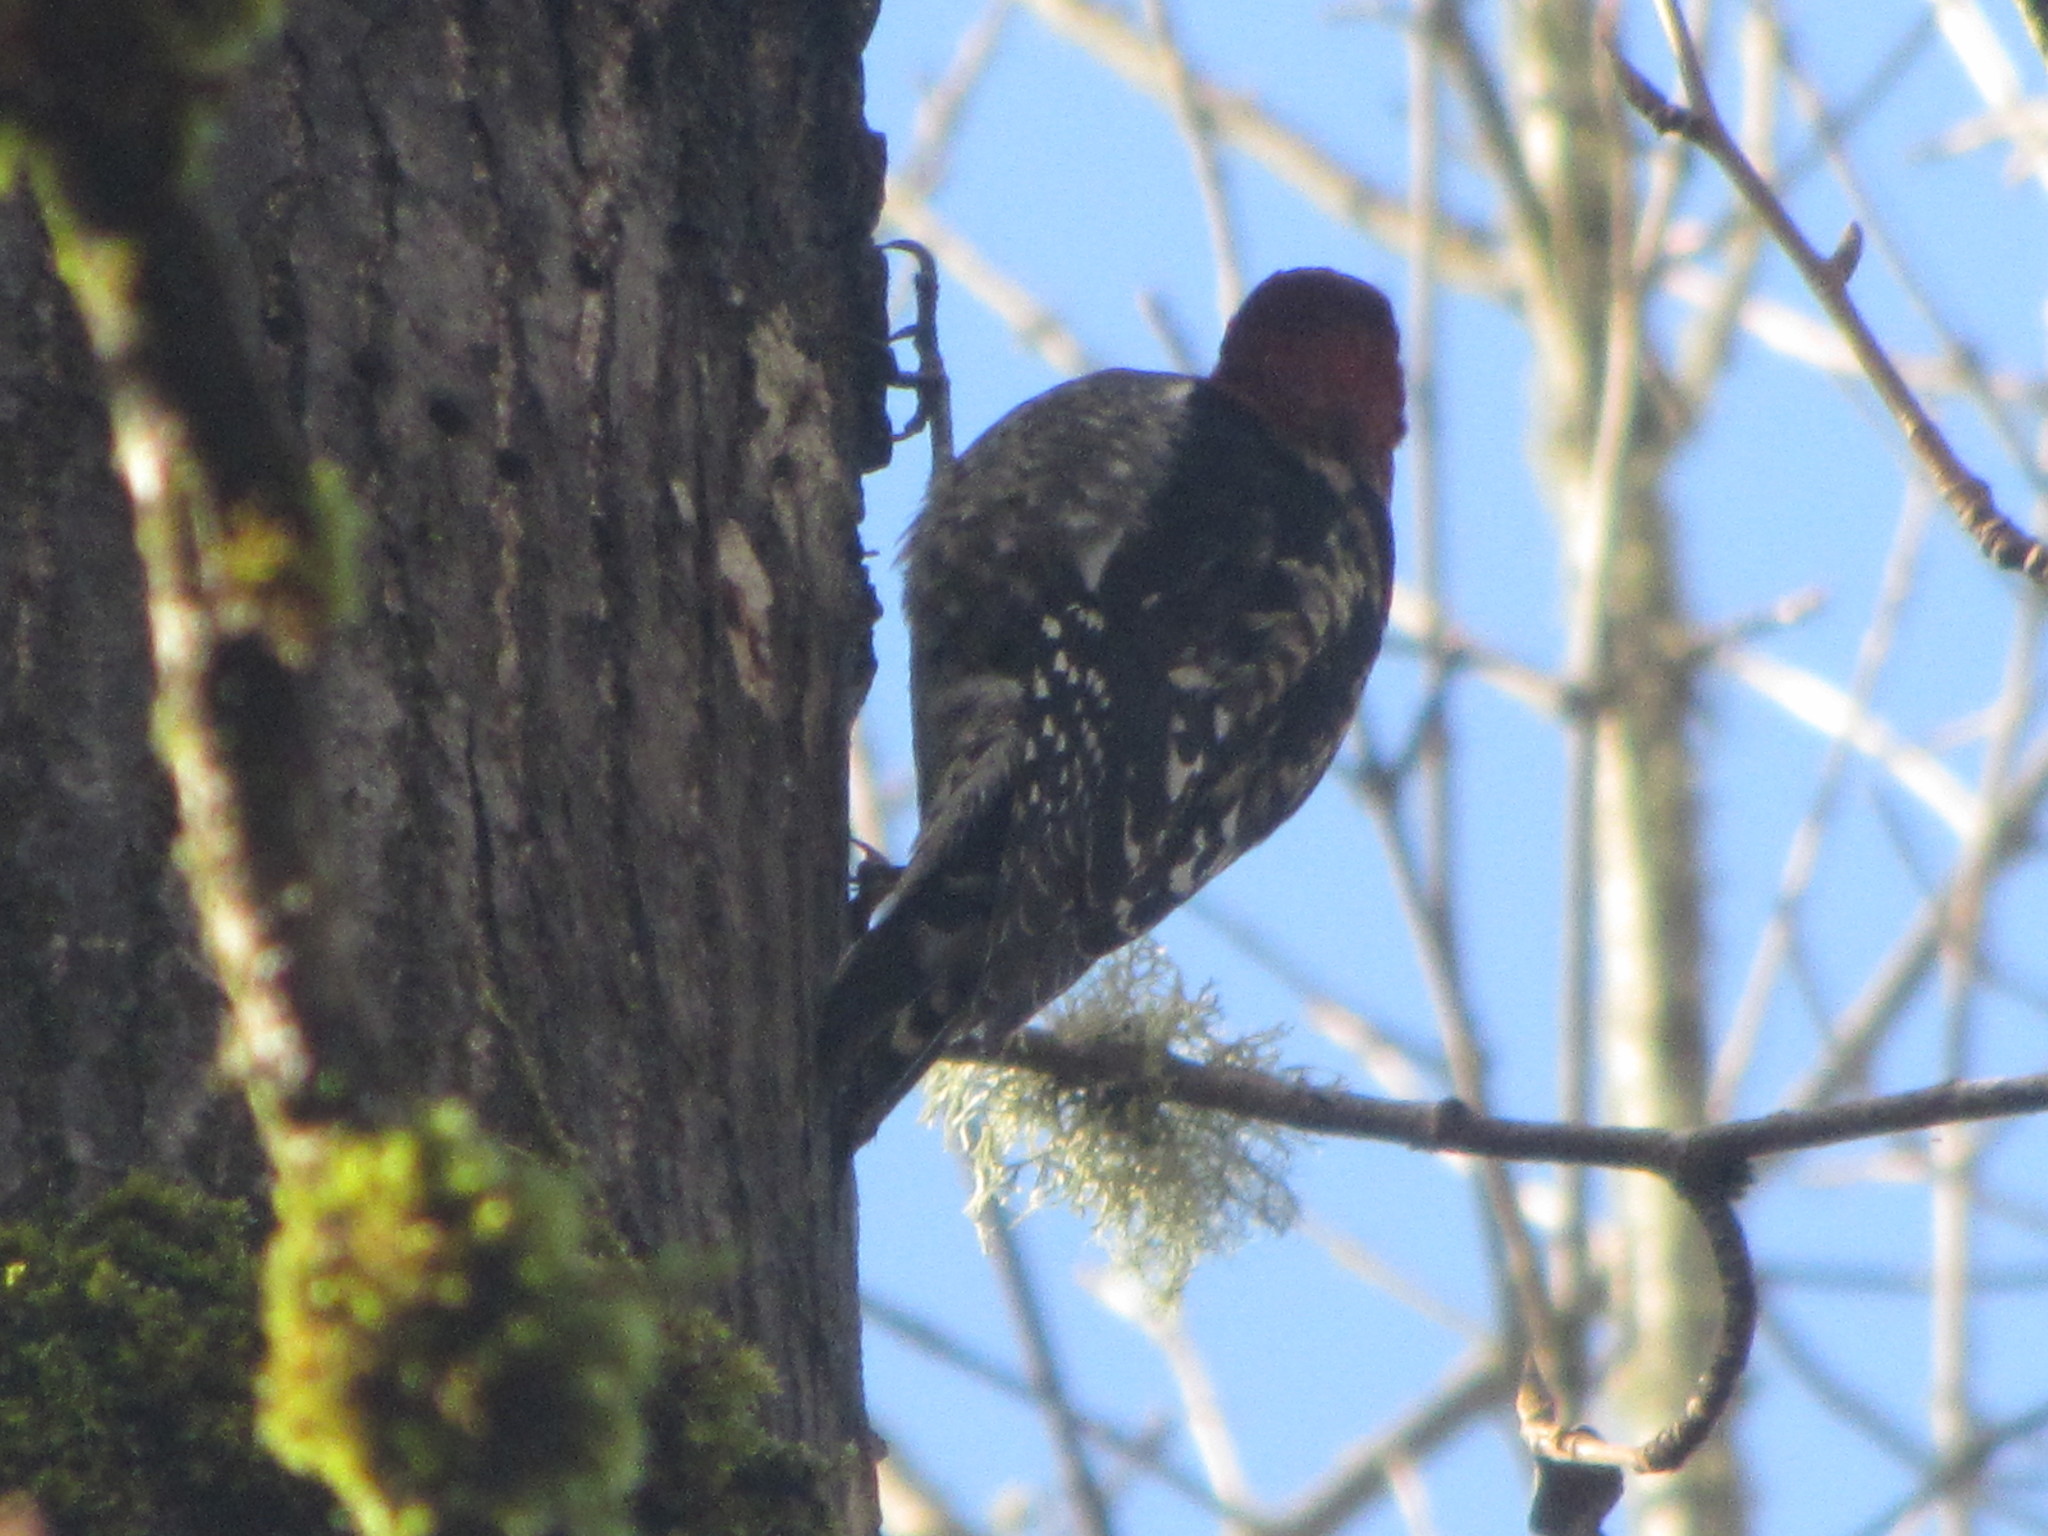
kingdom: Animalia
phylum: Chordata
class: Aves
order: Piciformes
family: Picidae
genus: Sphyrapicus
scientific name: Sphyrapicus ruber
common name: Red-breasted sapsucker
